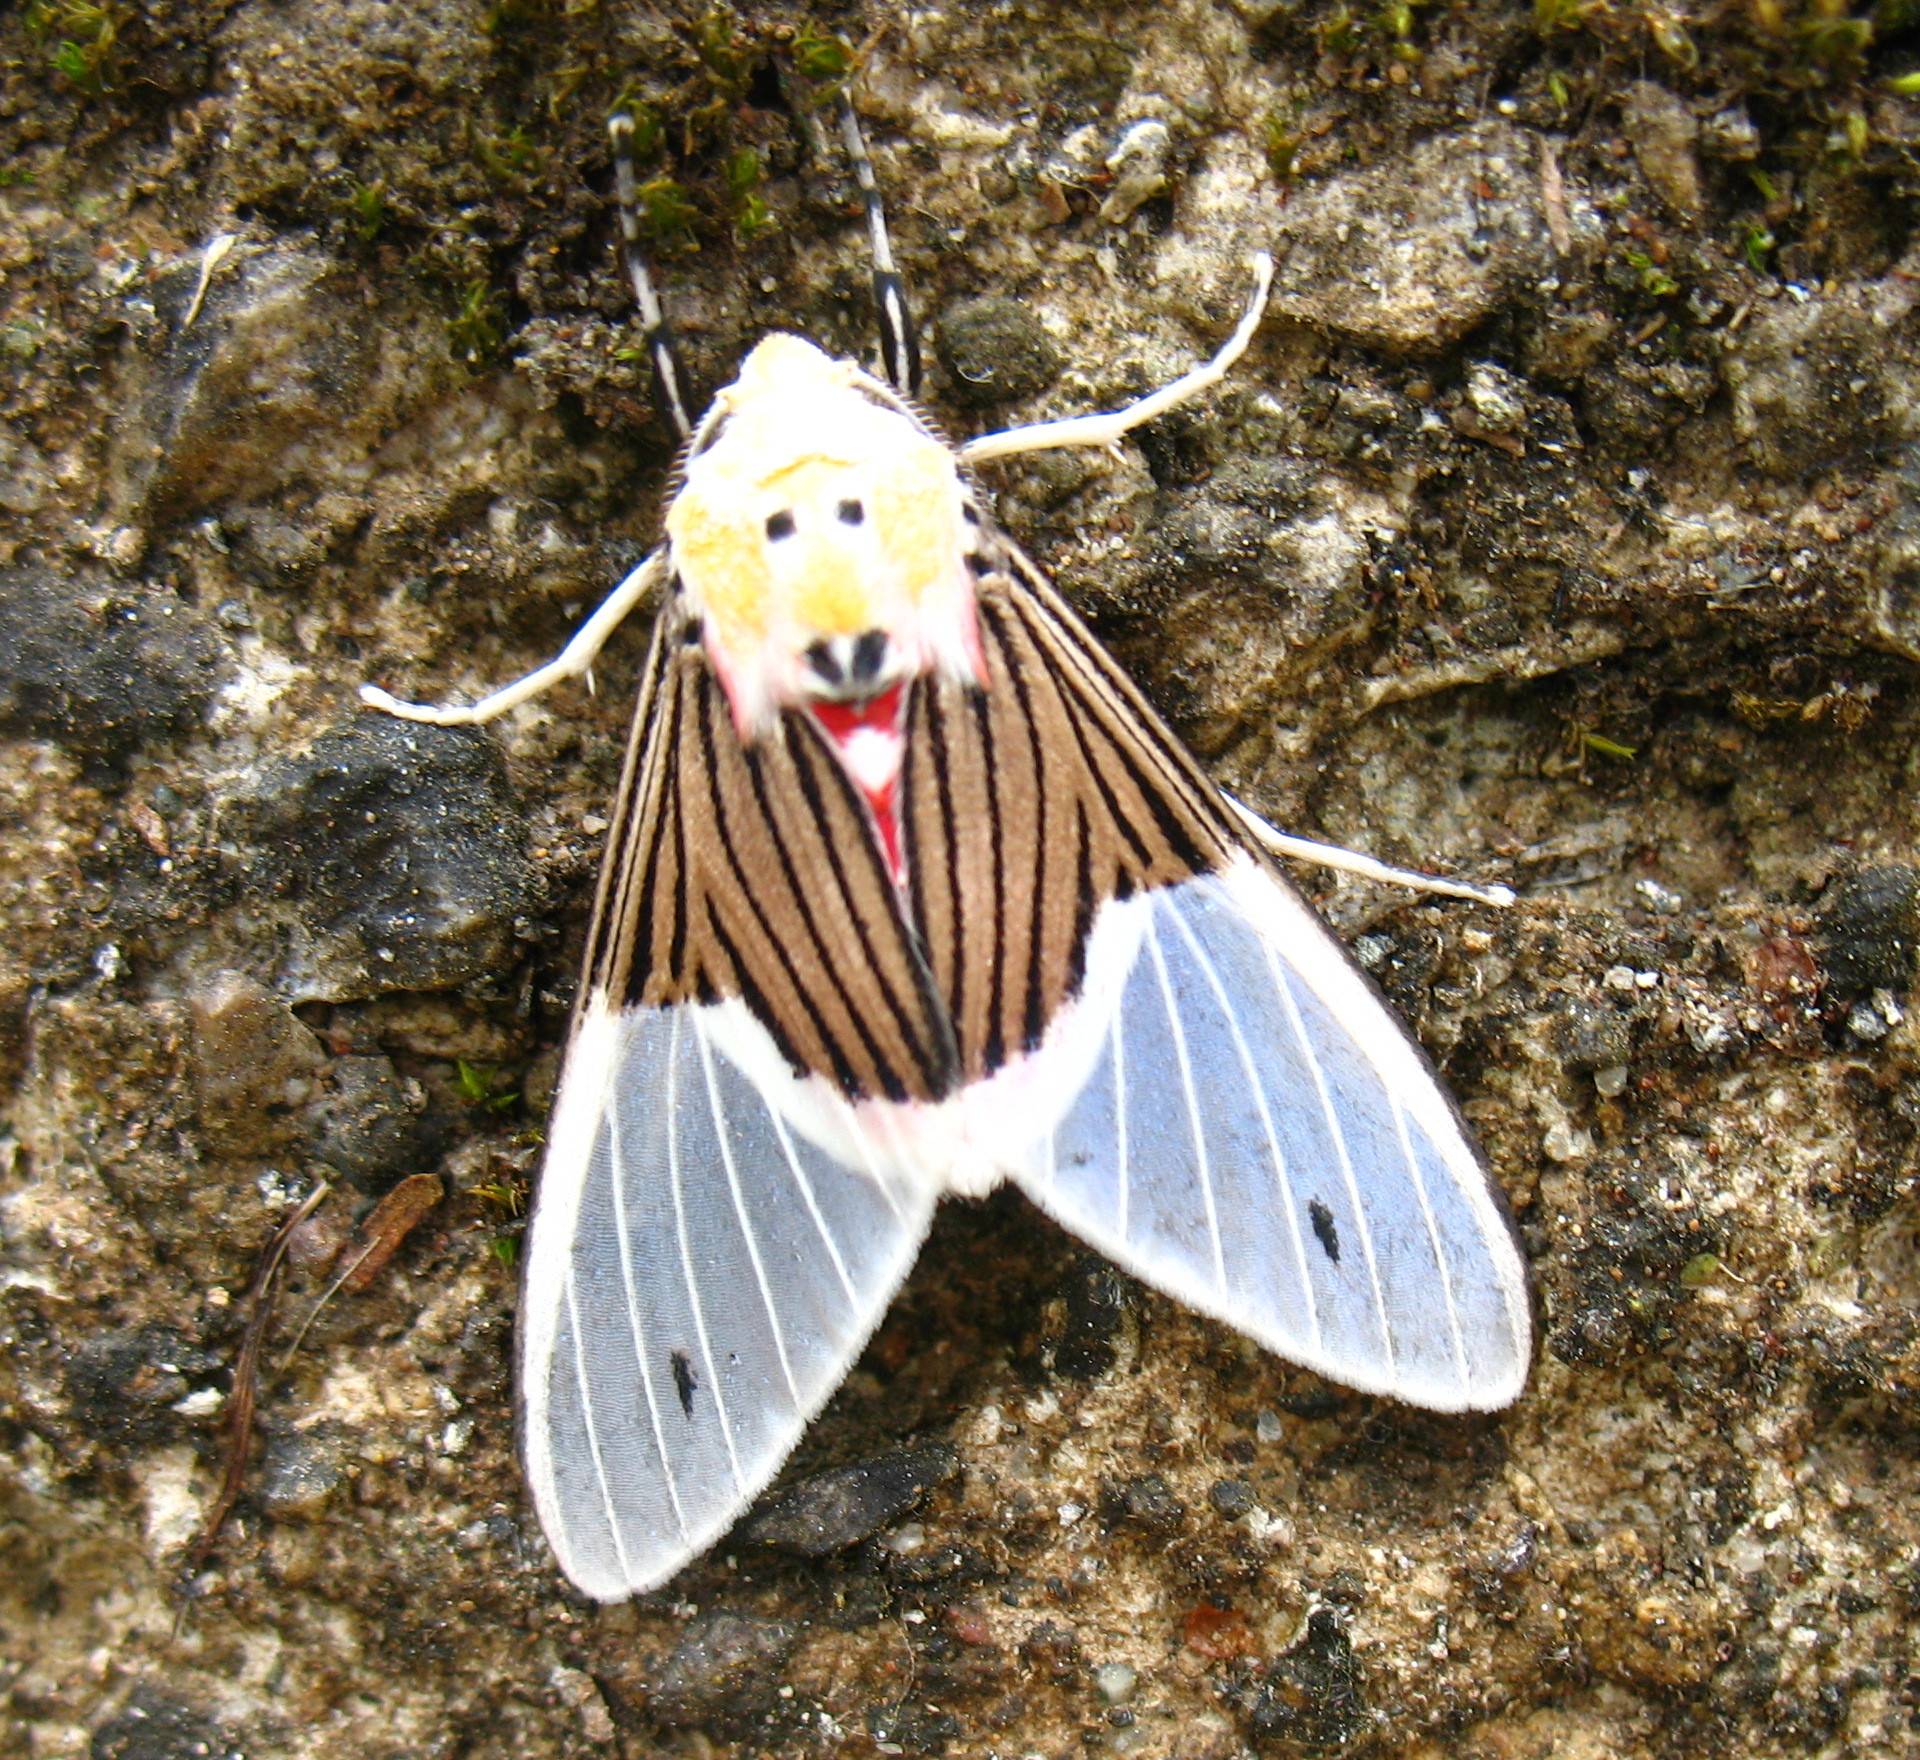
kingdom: Animalia
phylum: Arthropoda
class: Insecta
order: Lepidoptera
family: Erebidae
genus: Idalus
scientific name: Idalus tuisana
